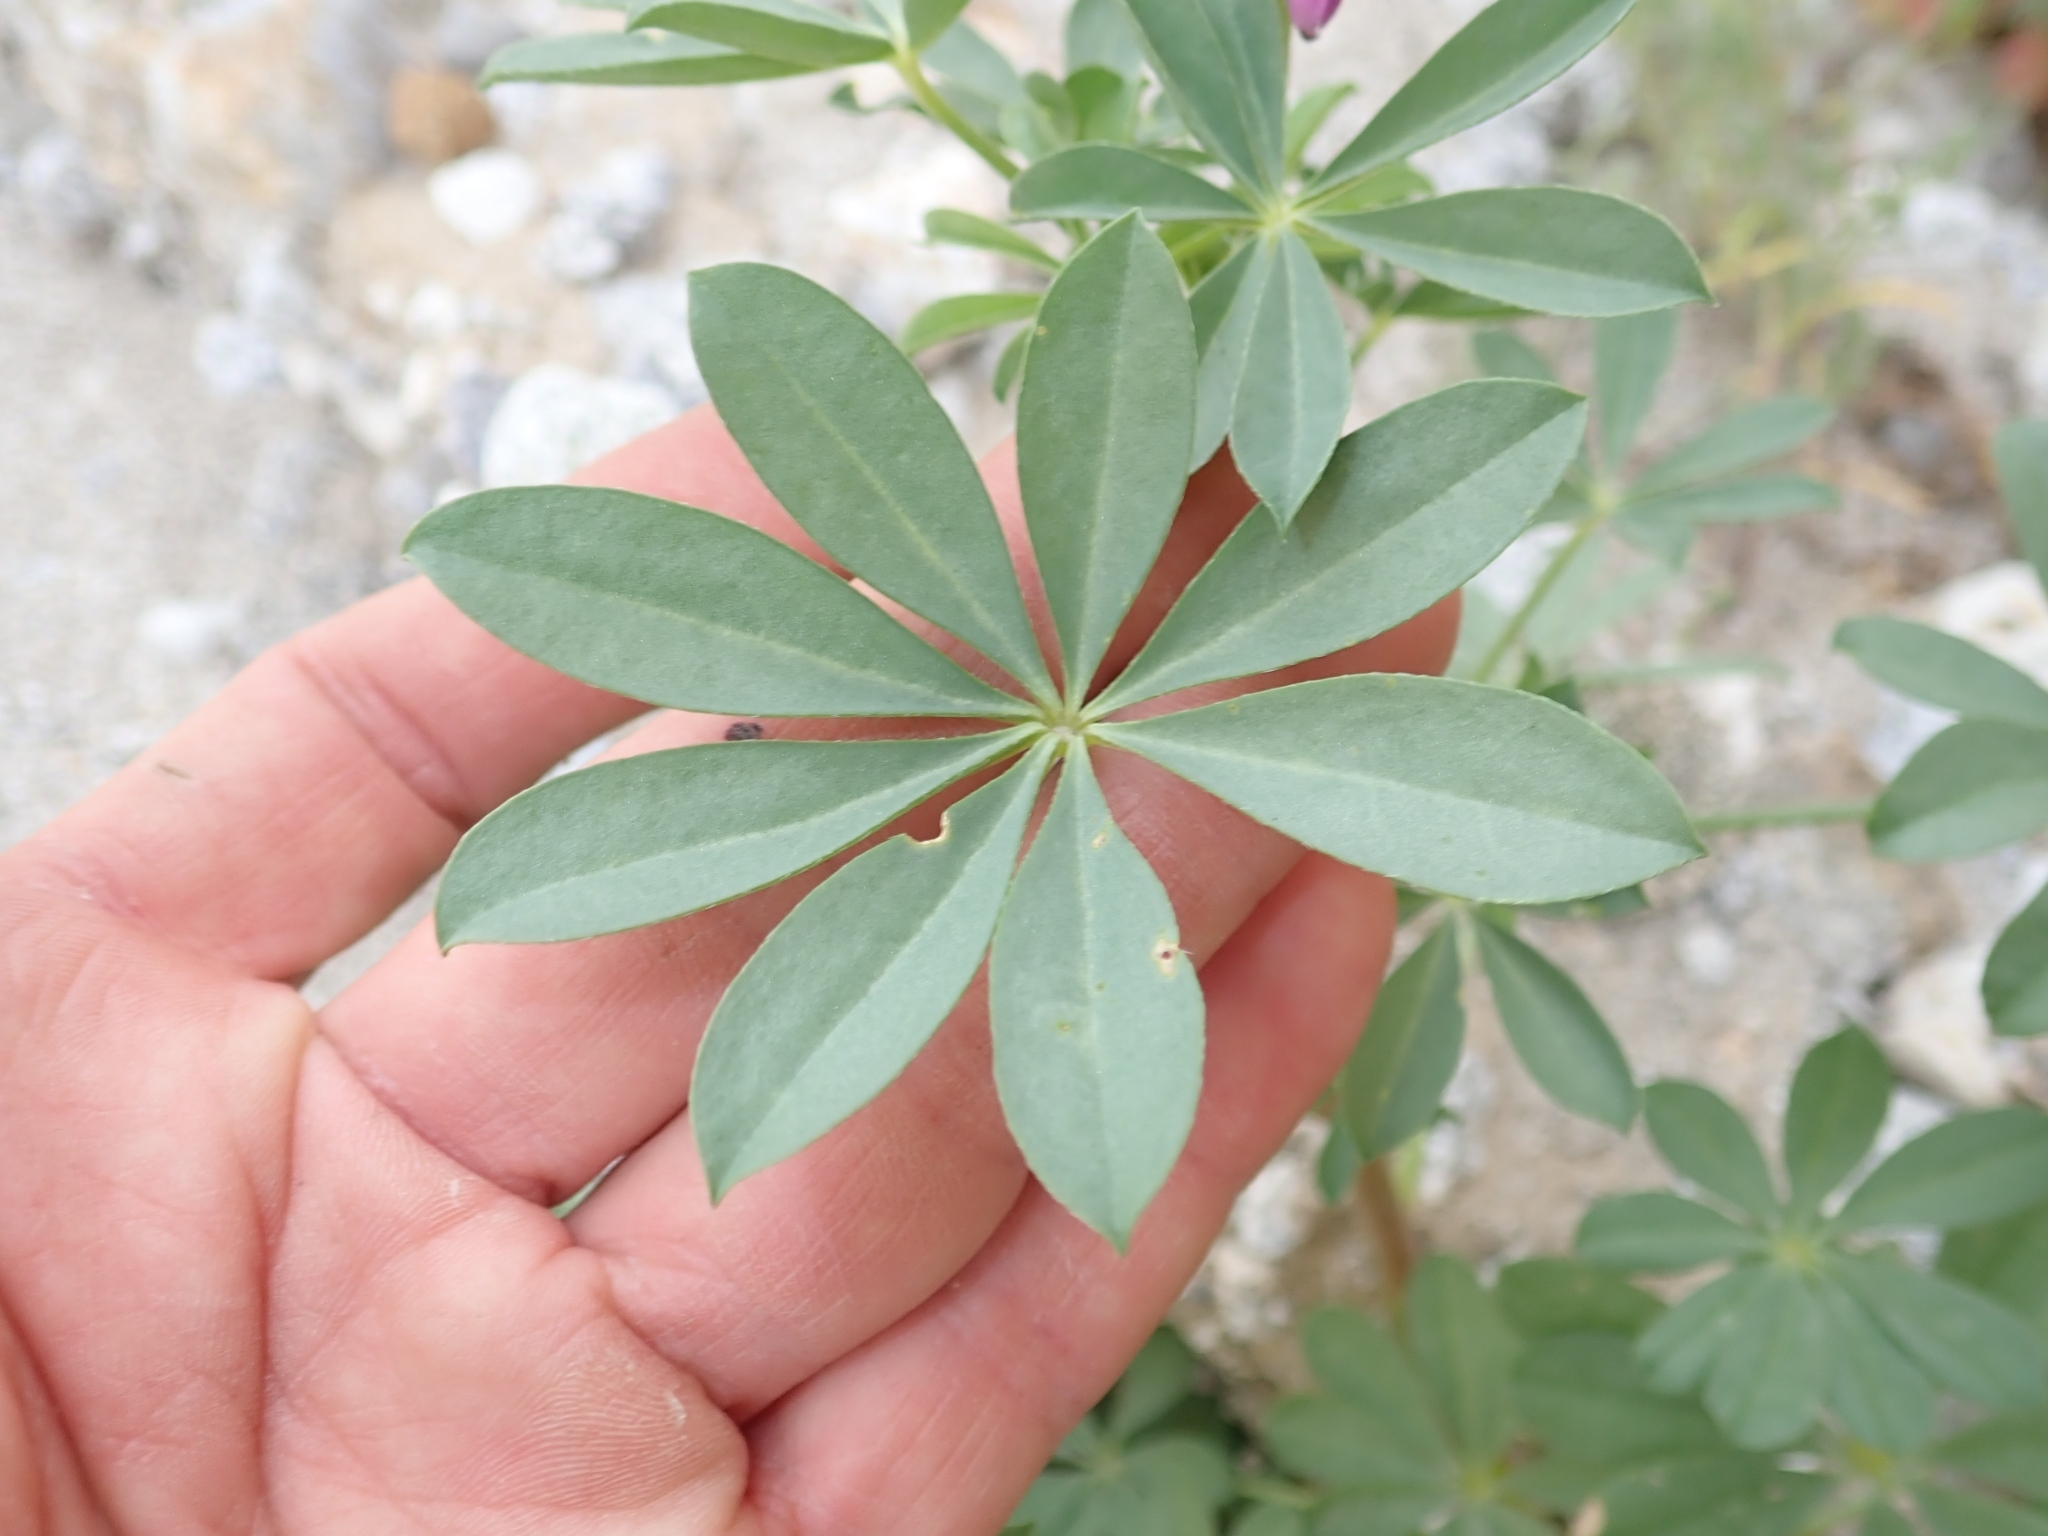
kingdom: Plantae
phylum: Tracheophyta
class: Magnoliopsida
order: Fabales
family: Fabaceae
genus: Lupinus
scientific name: Lupinus arizonicus
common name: Arizona lupine
